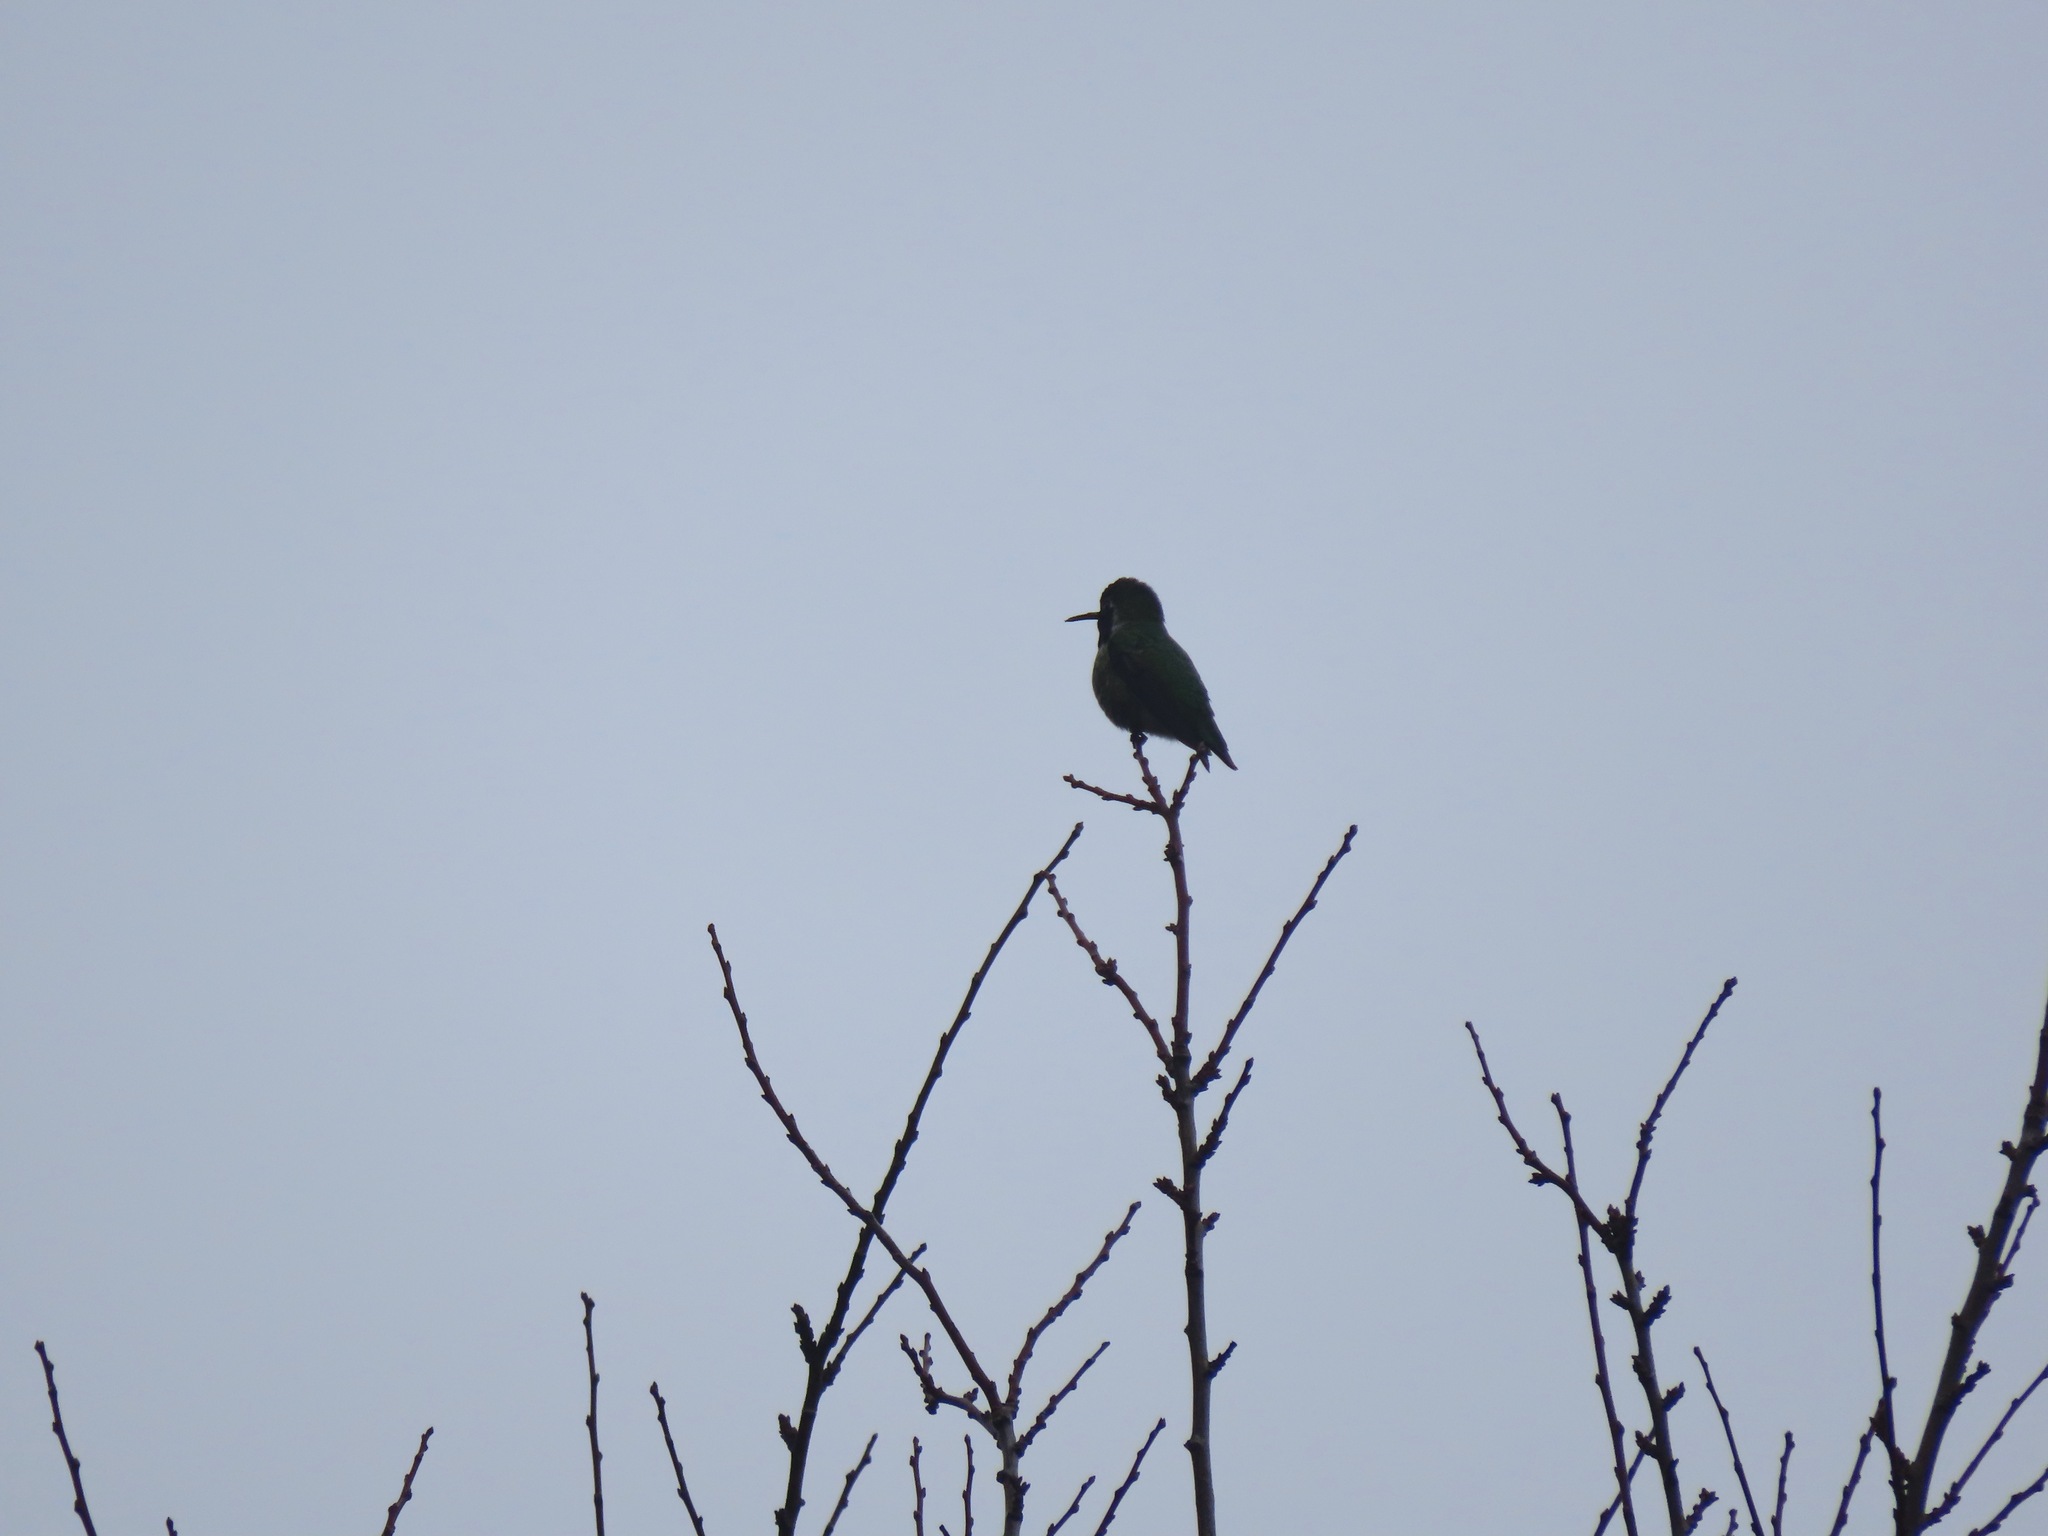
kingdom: Animalia
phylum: Chordata
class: Aves
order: Apodiformes
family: Trochilidae
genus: Calypte
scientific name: Calypte anna
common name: Anna's hummingbird
